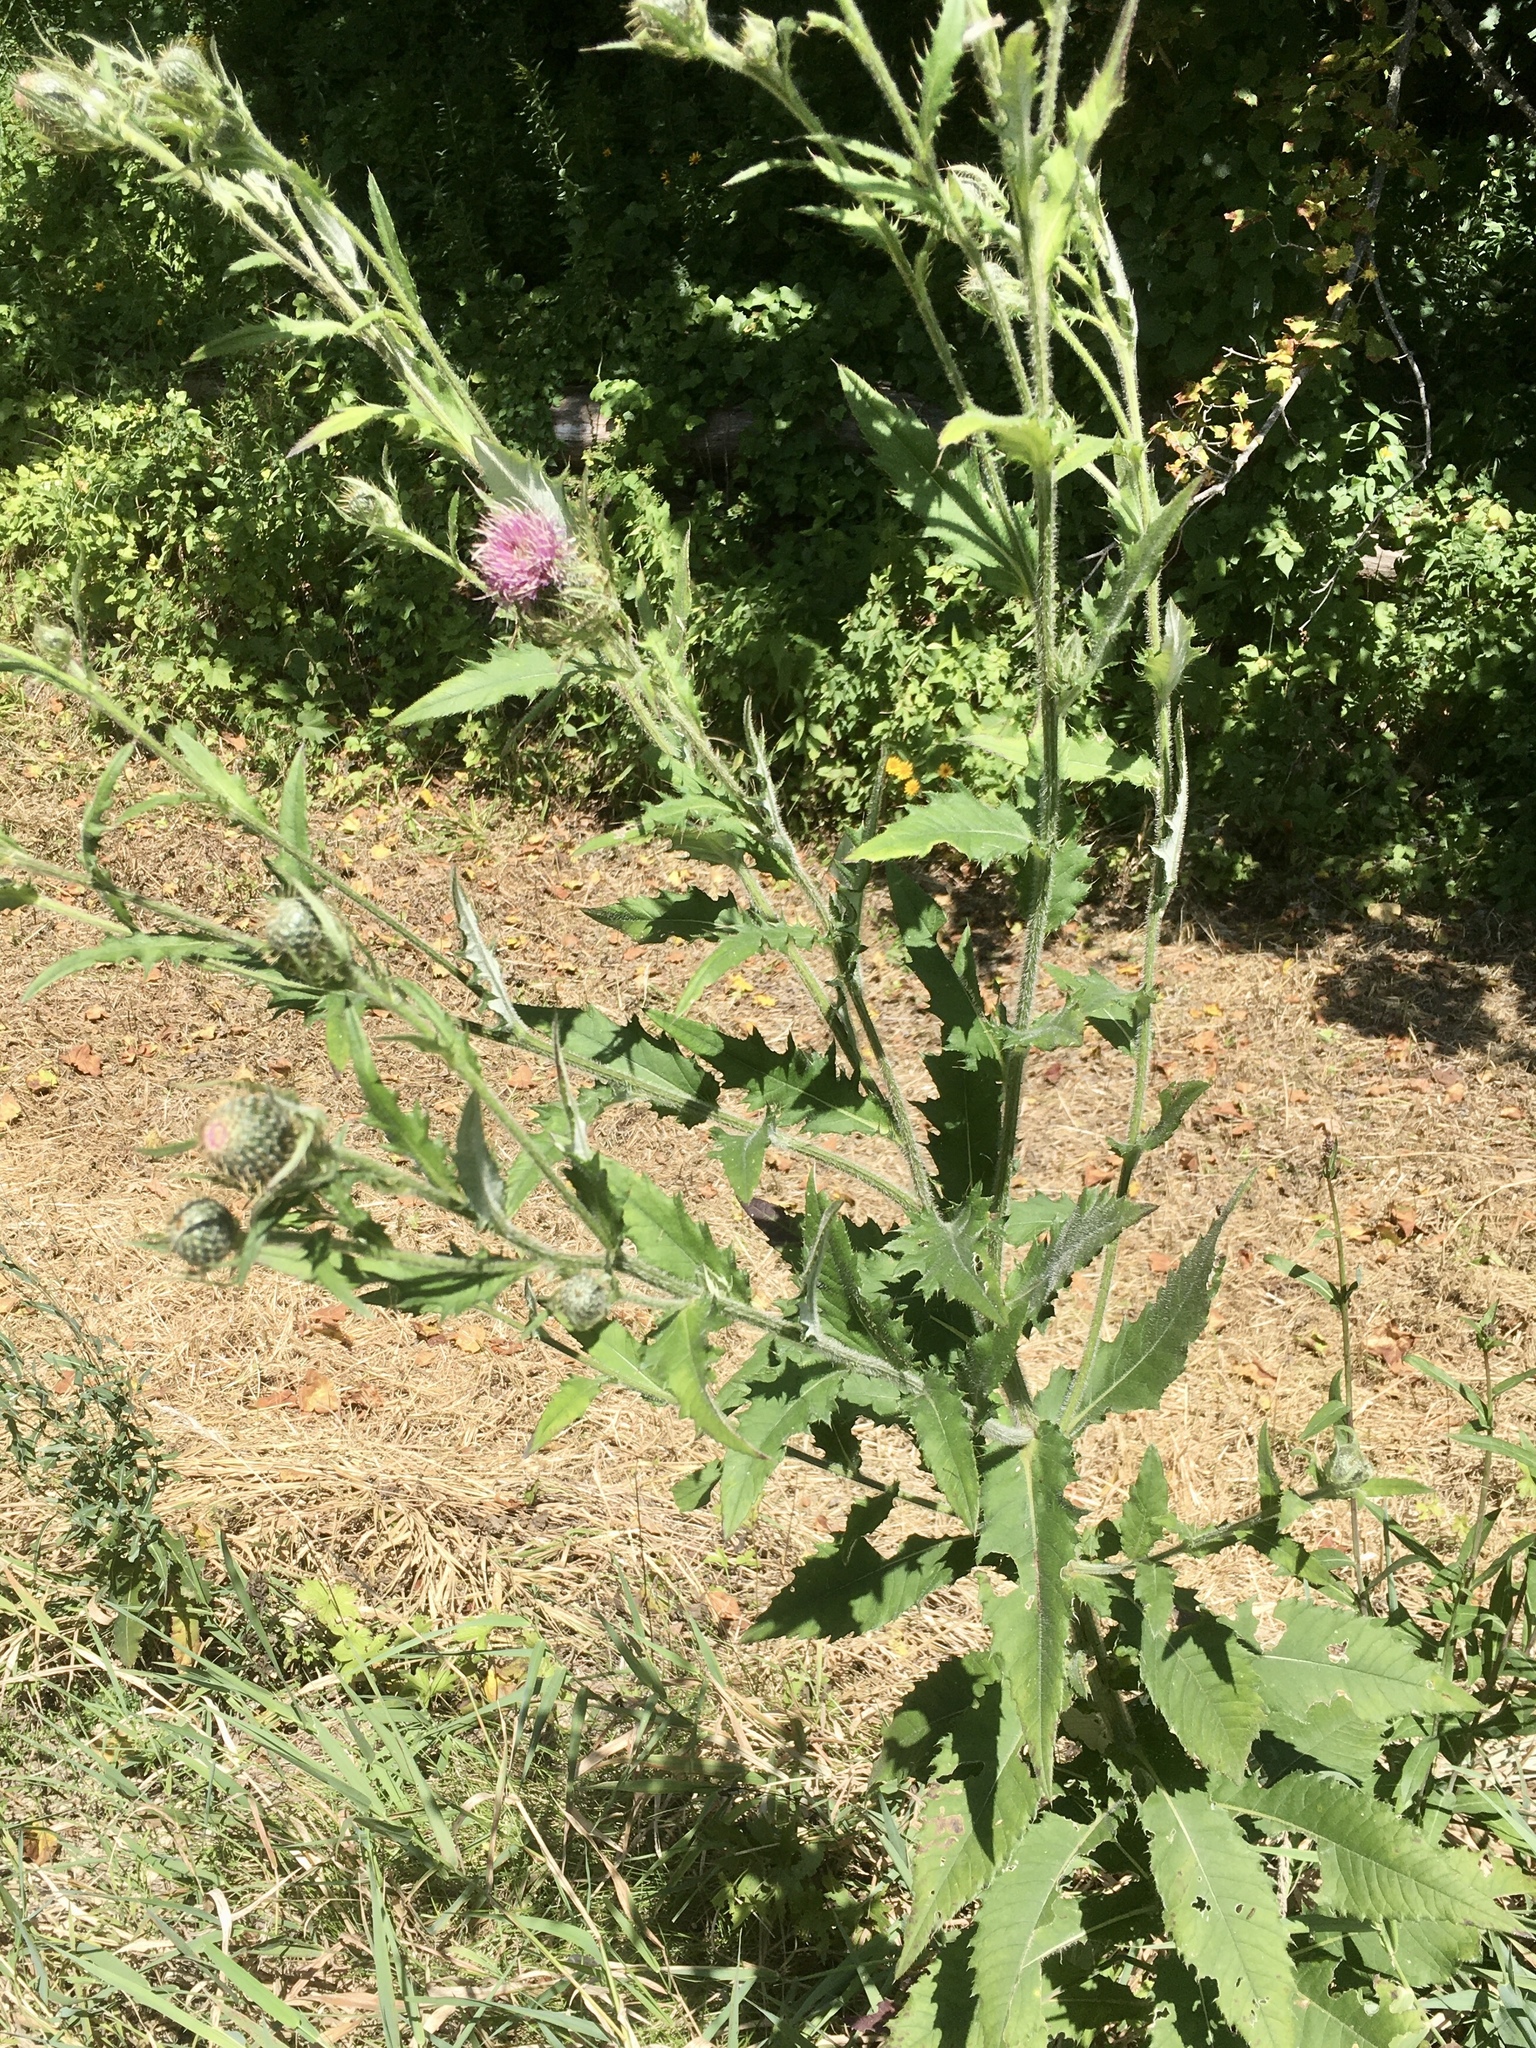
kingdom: Plantae
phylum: Tracheophyta
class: Magnoliopsida
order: Asterales
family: Asteraceae
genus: Cirsium
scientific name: Cirsium altissimum
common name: Roadside thistle
